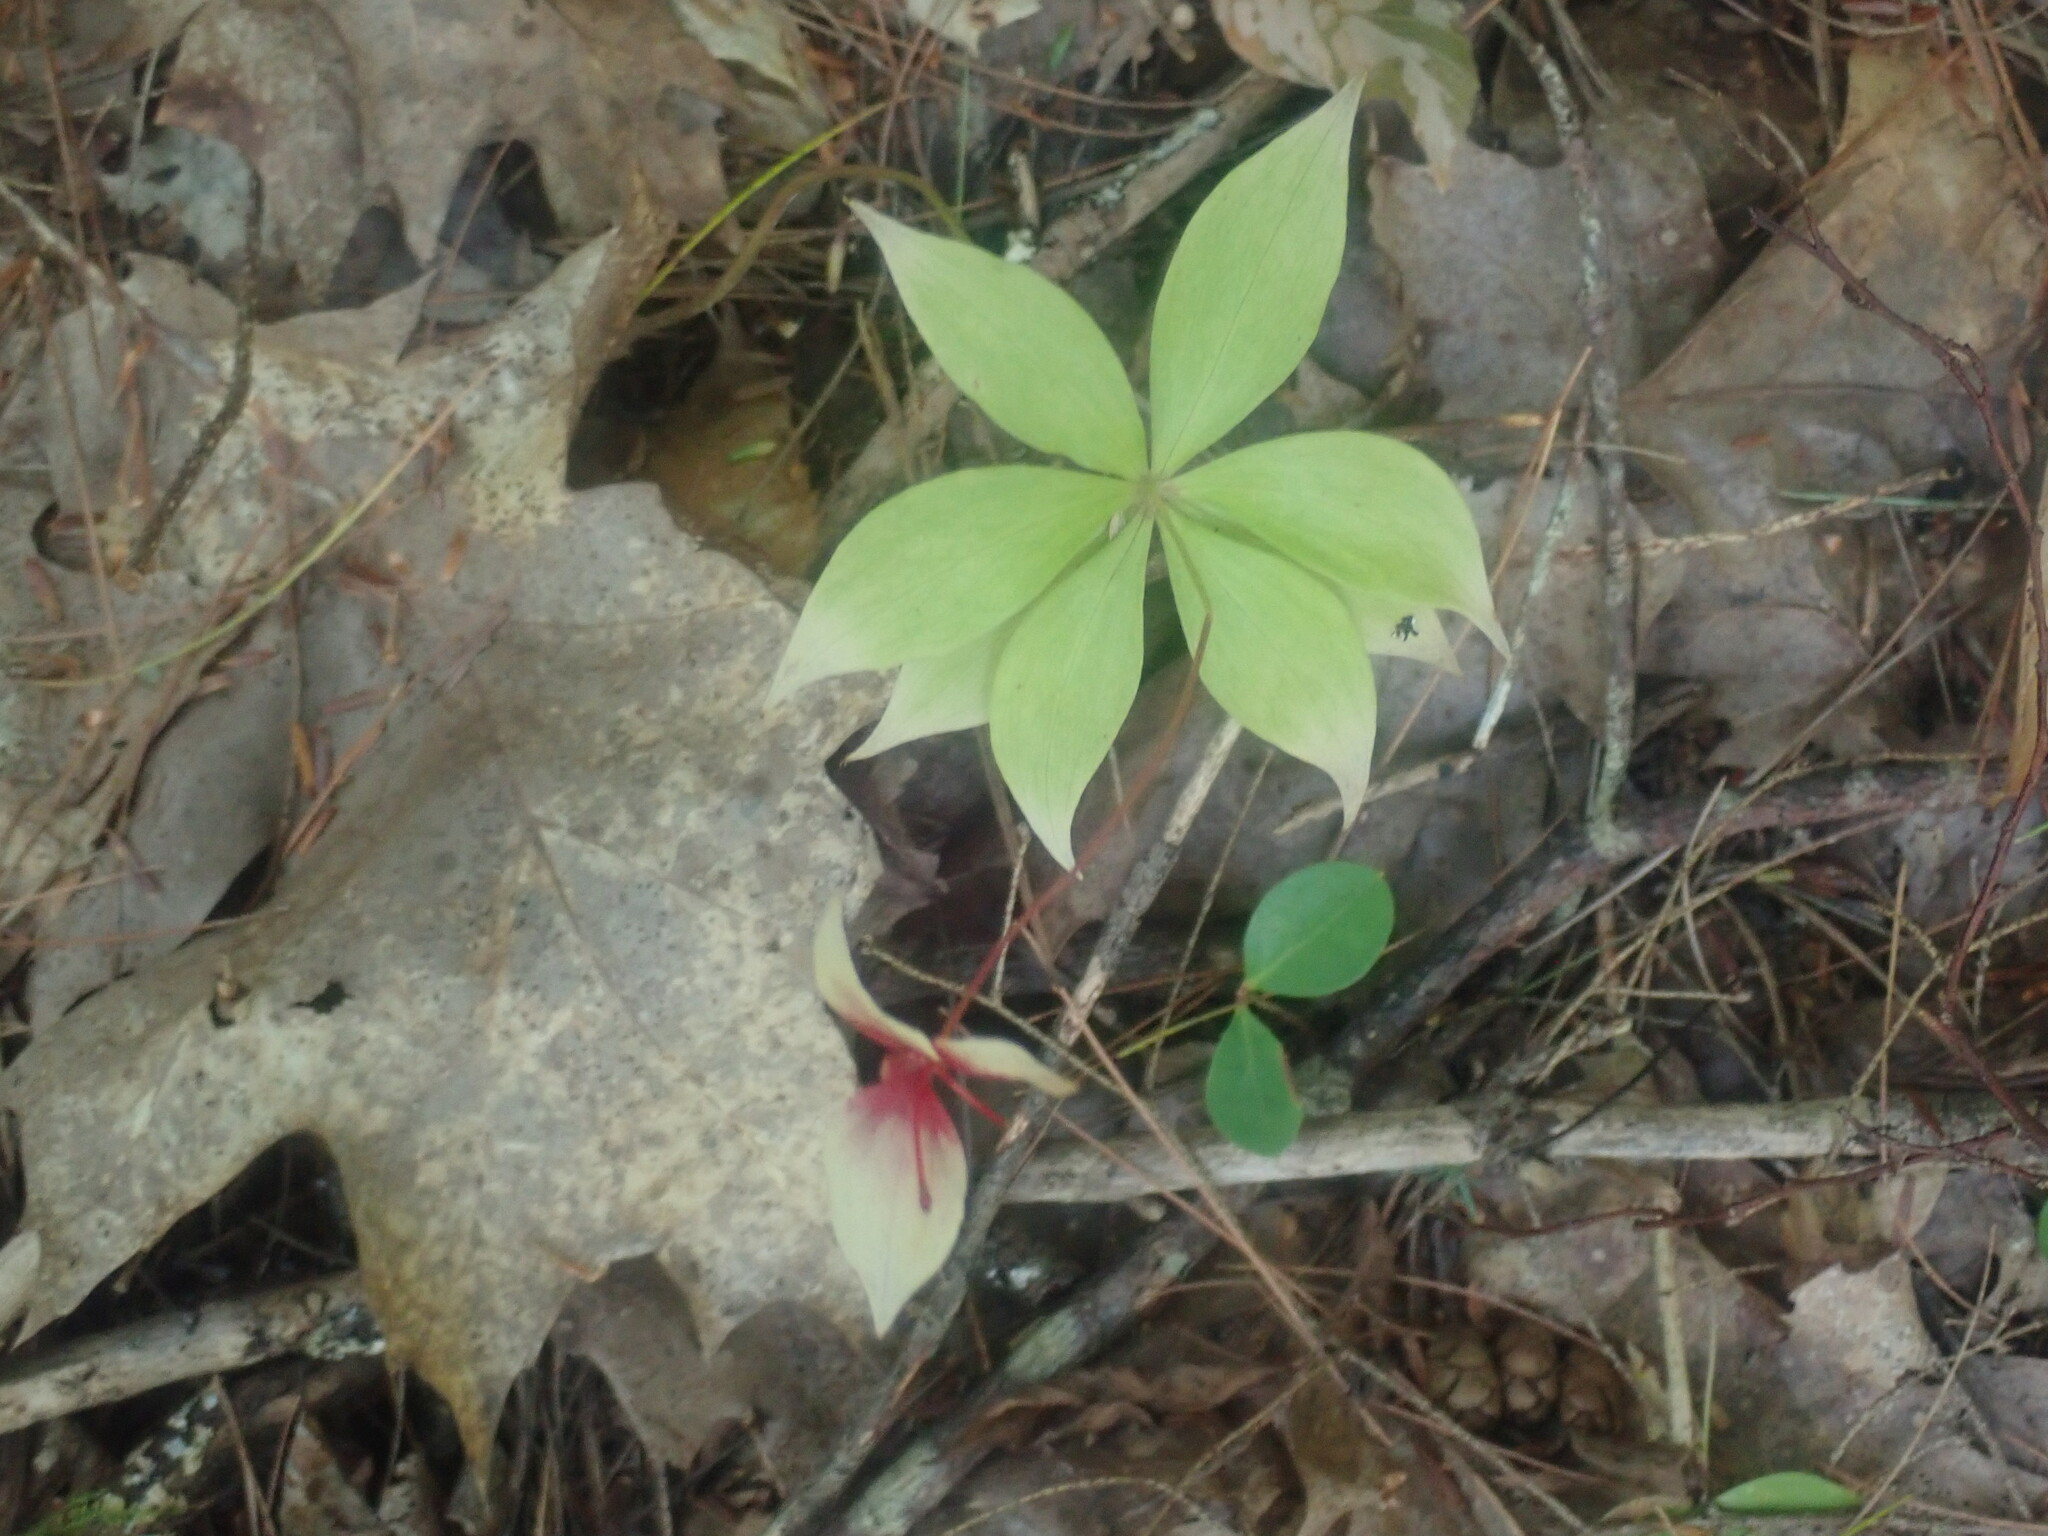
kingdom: Plantae
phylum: Tracheophyta
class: Liliopsida
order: Liliales
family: Liliaceae
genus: Medeola
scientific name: Medeola virginiana
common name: Indian cucumber-root
